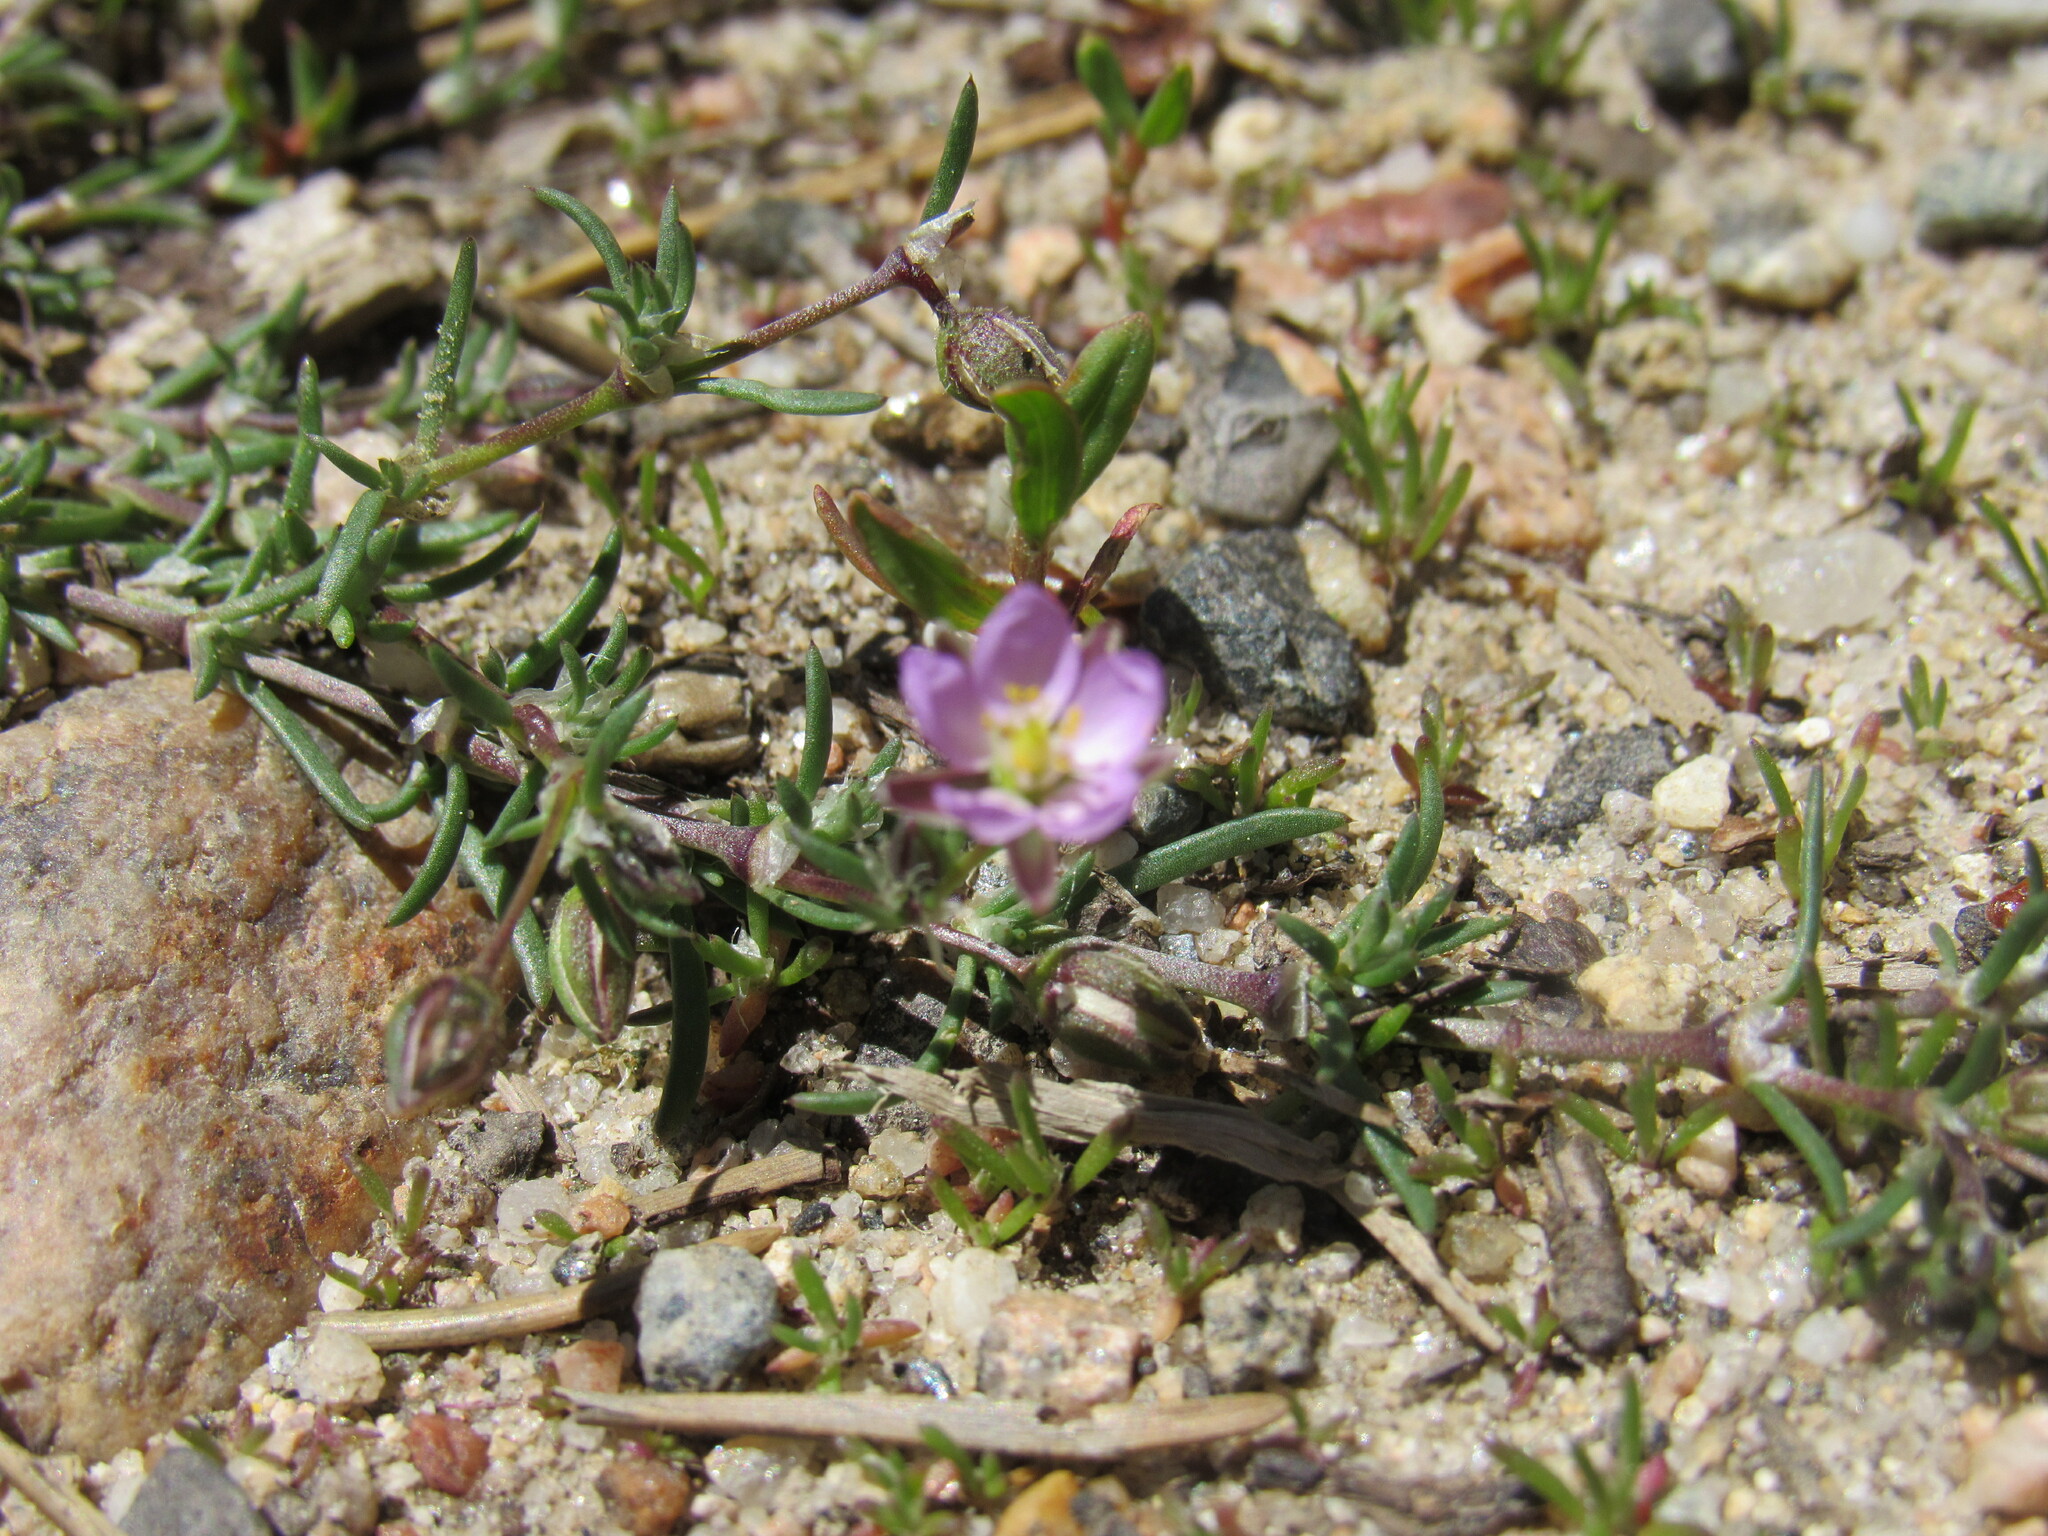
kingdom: Plantae
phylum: Tracheophyta
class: Magnoliopsida
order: Caryophyllales
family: Caryophyllaceae
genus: Spergularia
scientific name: Spergularia rubra
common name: Red sand-spurrey
